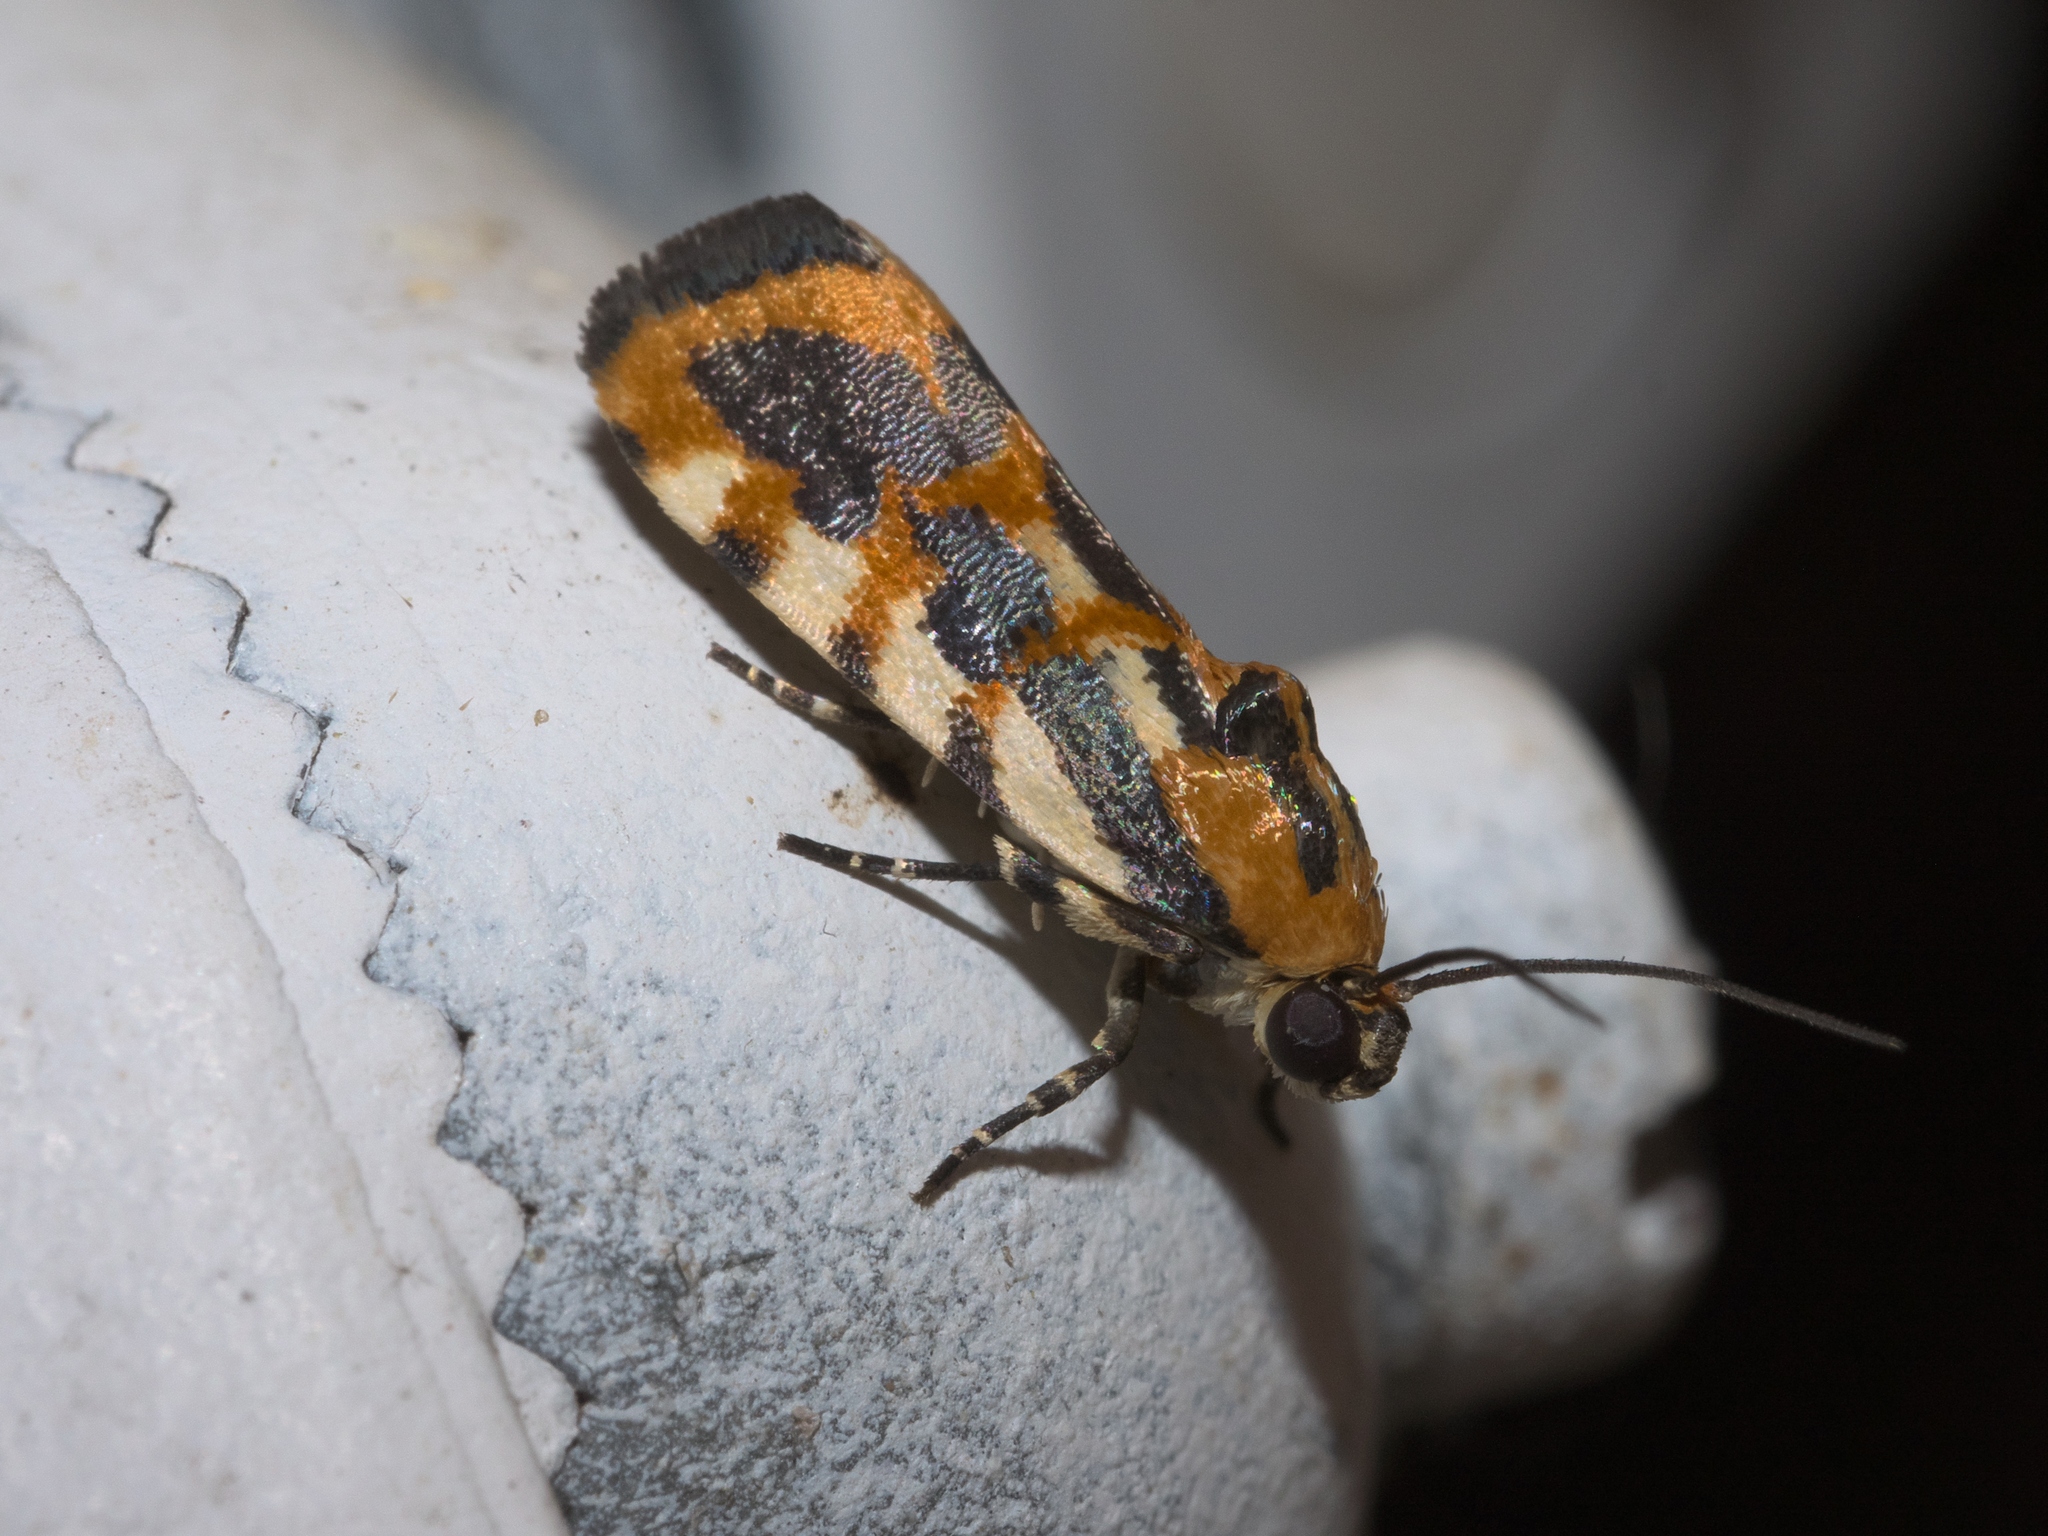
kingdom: Animalia
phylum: Arthropoda
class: Insecta
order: Lepidoptera
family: Noctuidae
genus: Acontia
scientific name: Acontia leo
